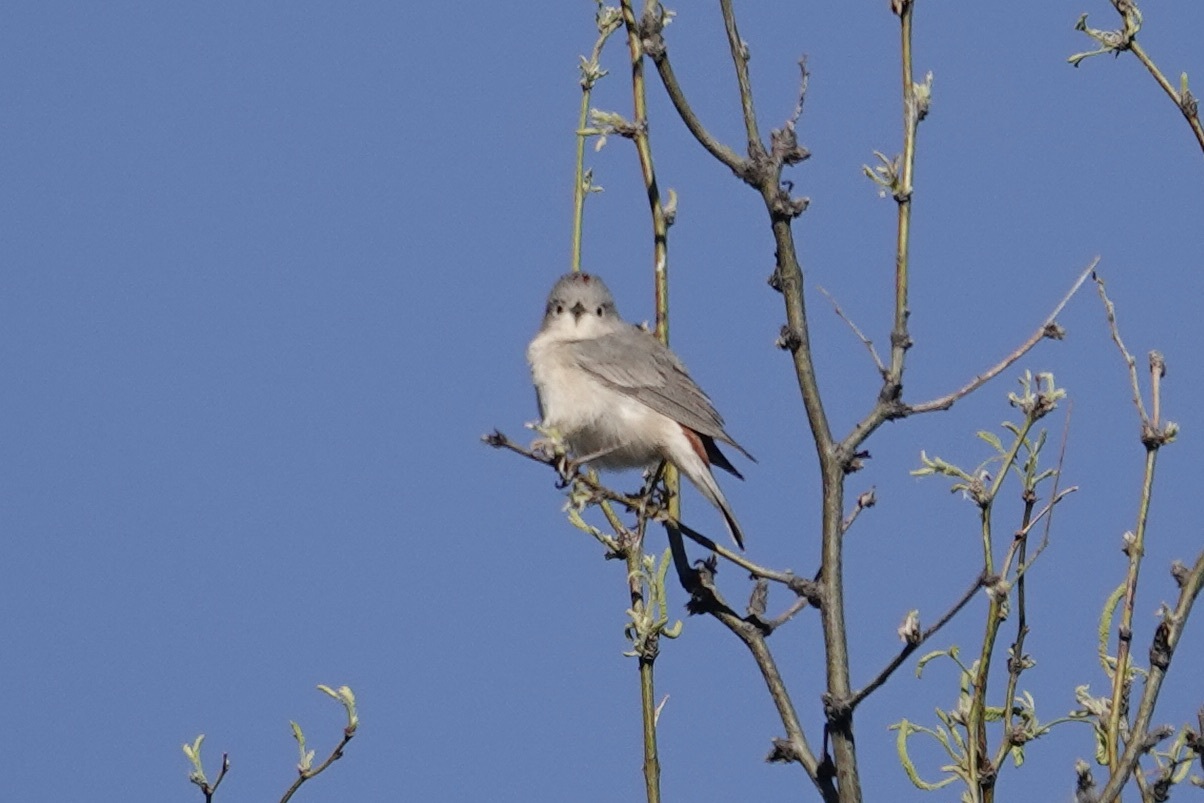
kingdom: Animalia
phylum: Chordata
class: Aves
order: Passeriformes
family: Parulidae
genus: Leiothlypis
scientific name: Leiothlypis luciae
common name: Lucy's warbler
